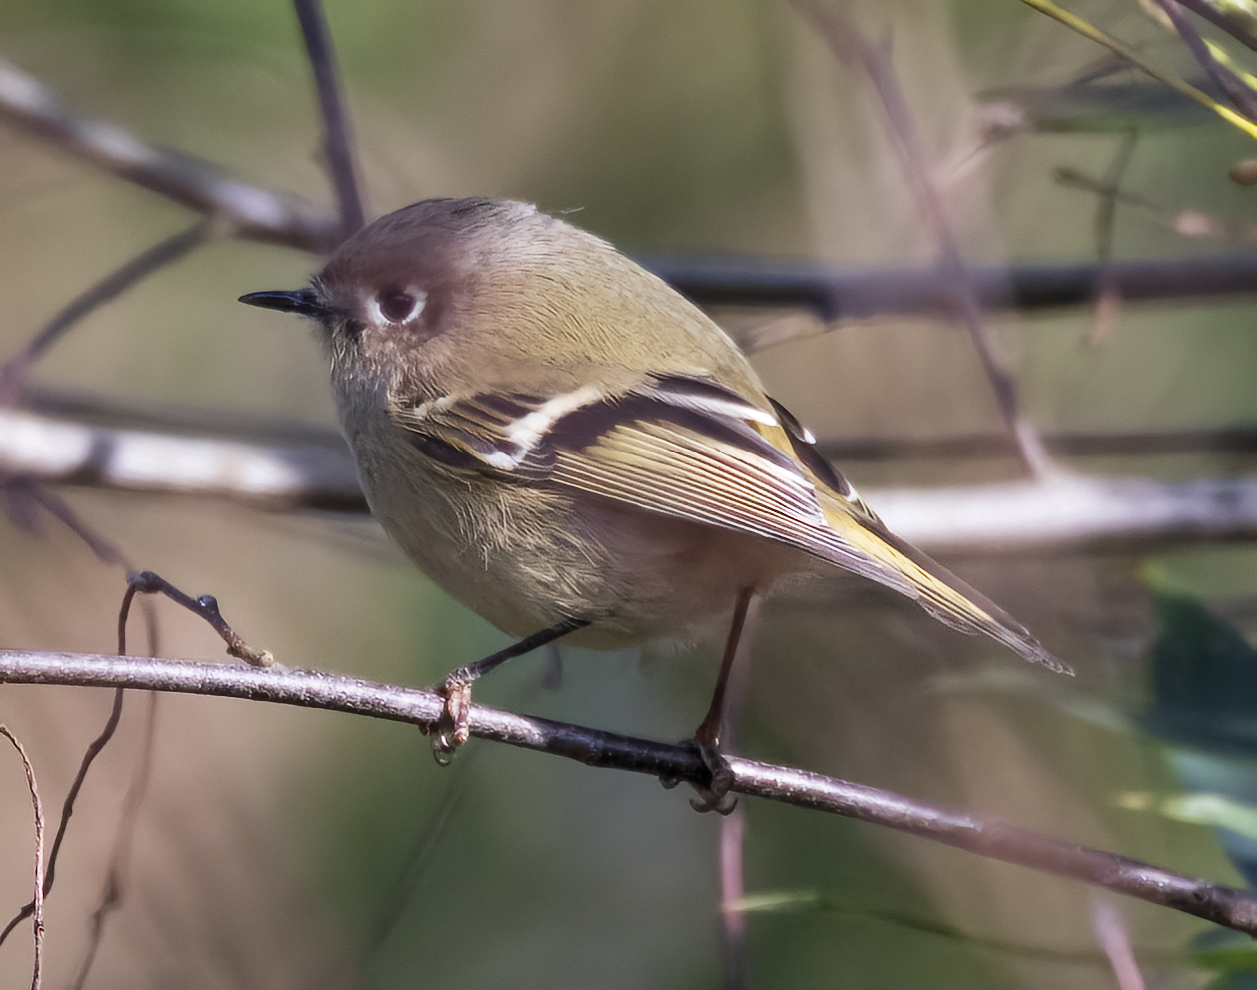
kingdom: Animalia
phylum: Chordata
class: Aves
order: Passeriformes
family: Regulidae
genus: Regulus
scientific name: Regulus calendula
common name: Ruby-crowned kinglet
